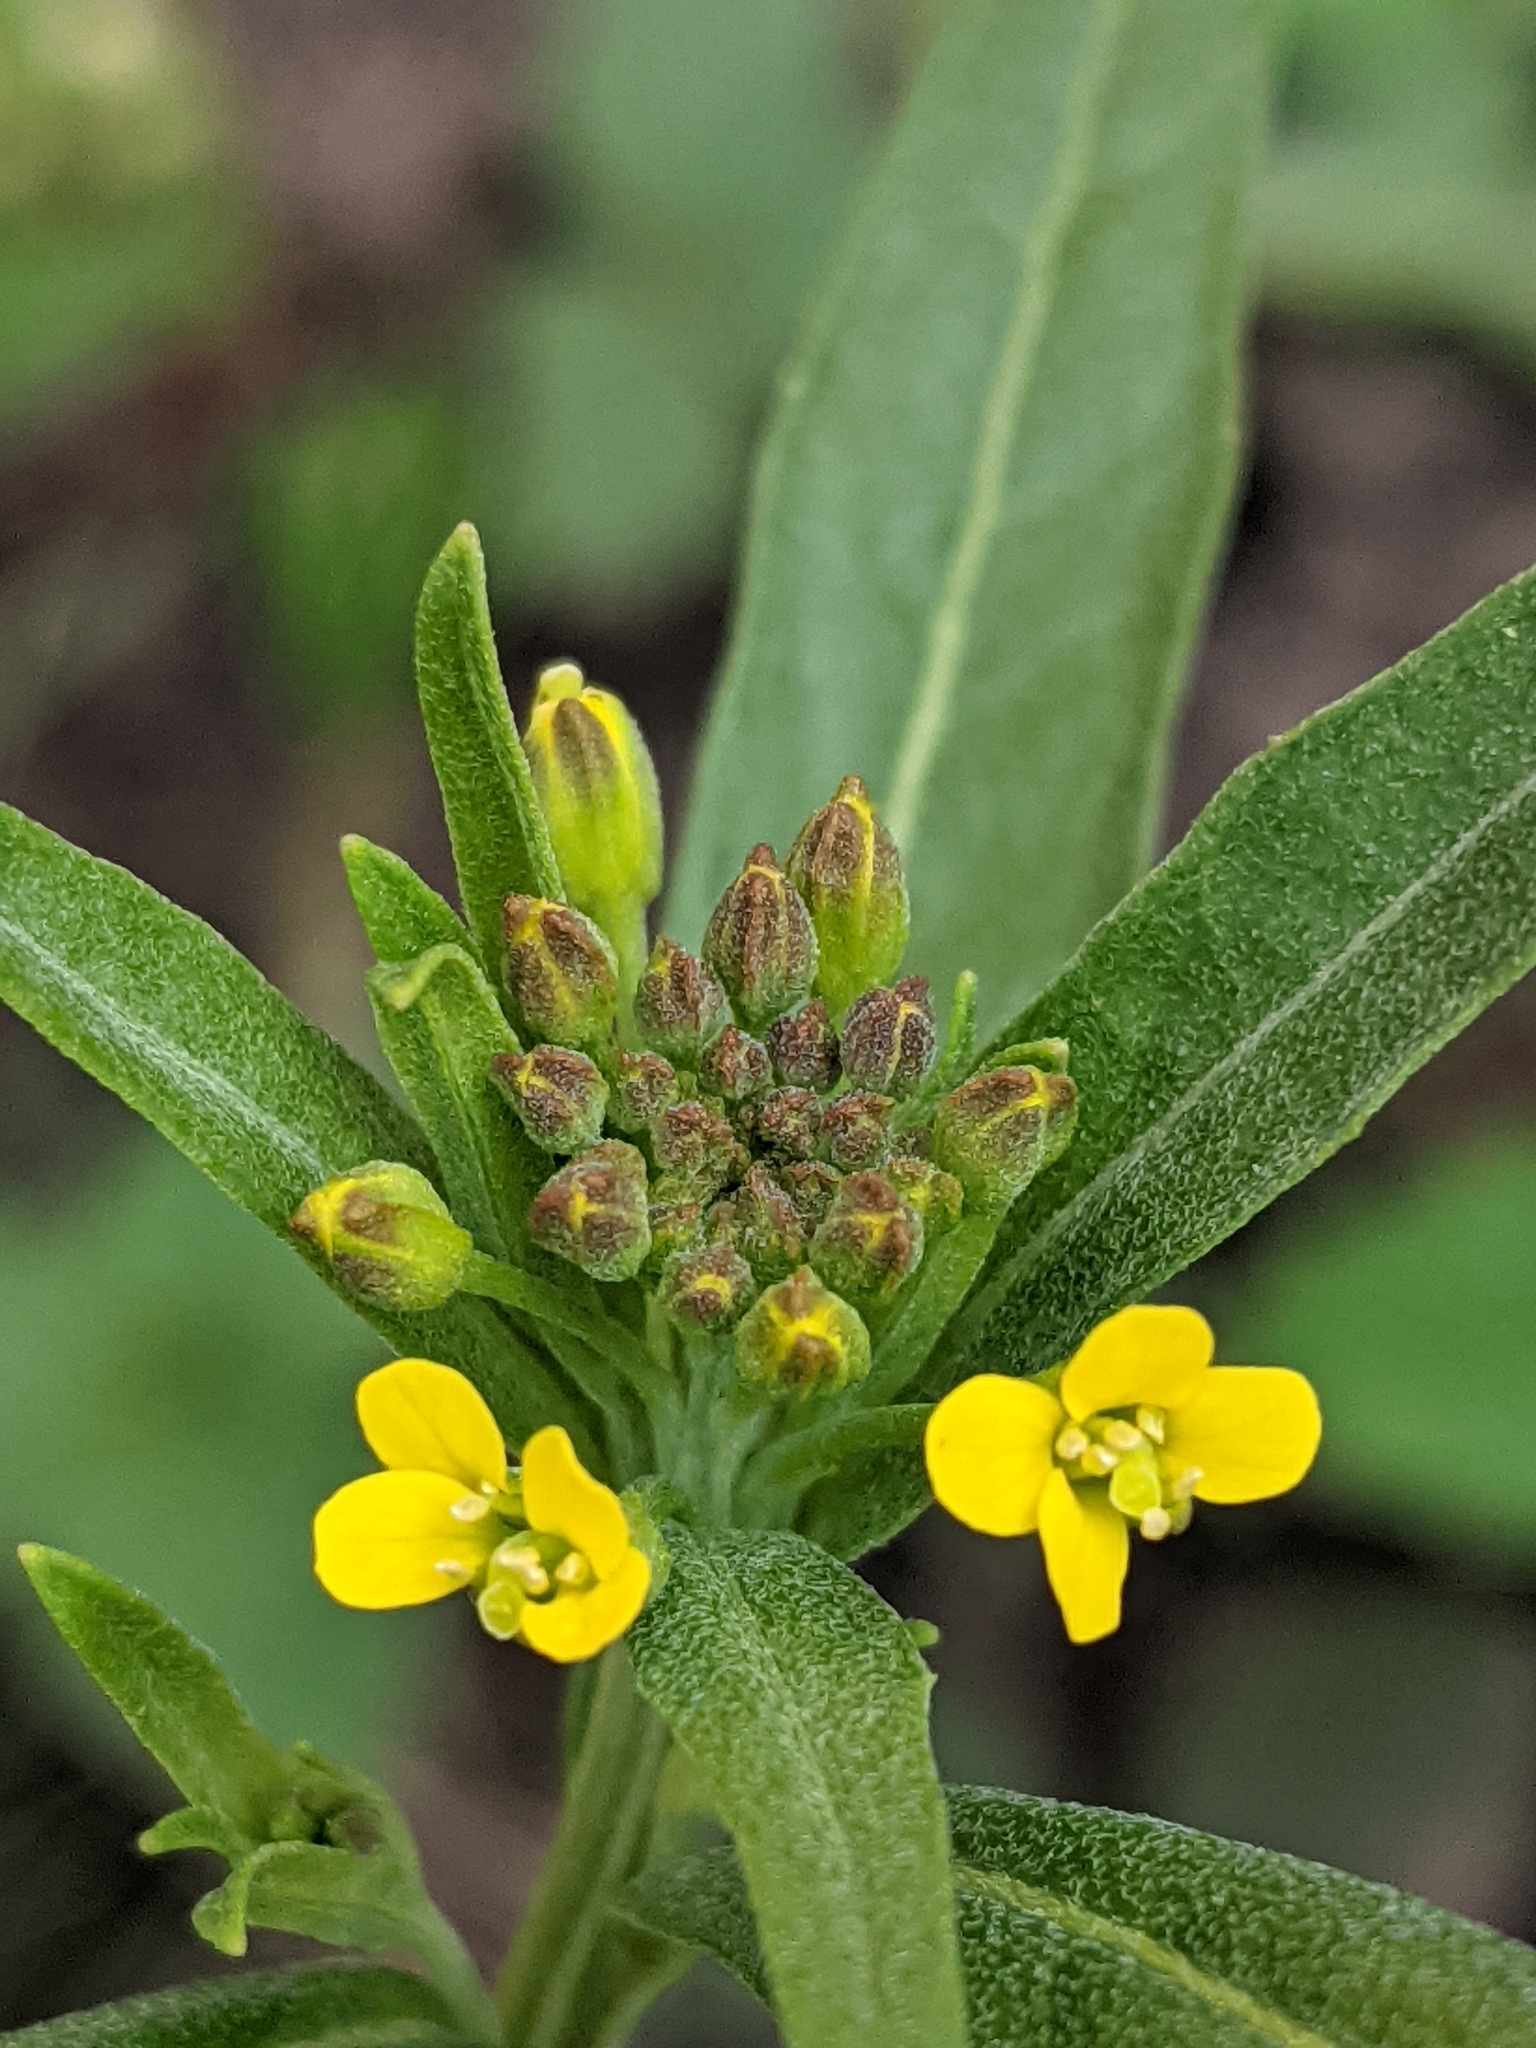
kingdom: Plantae
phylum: Tracheophyta
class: Magnoliopsida
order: Brassicales
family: Brassicaceae
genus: Erysimum
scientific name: Erysimum cheiranthoides
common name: Treacle mustard
